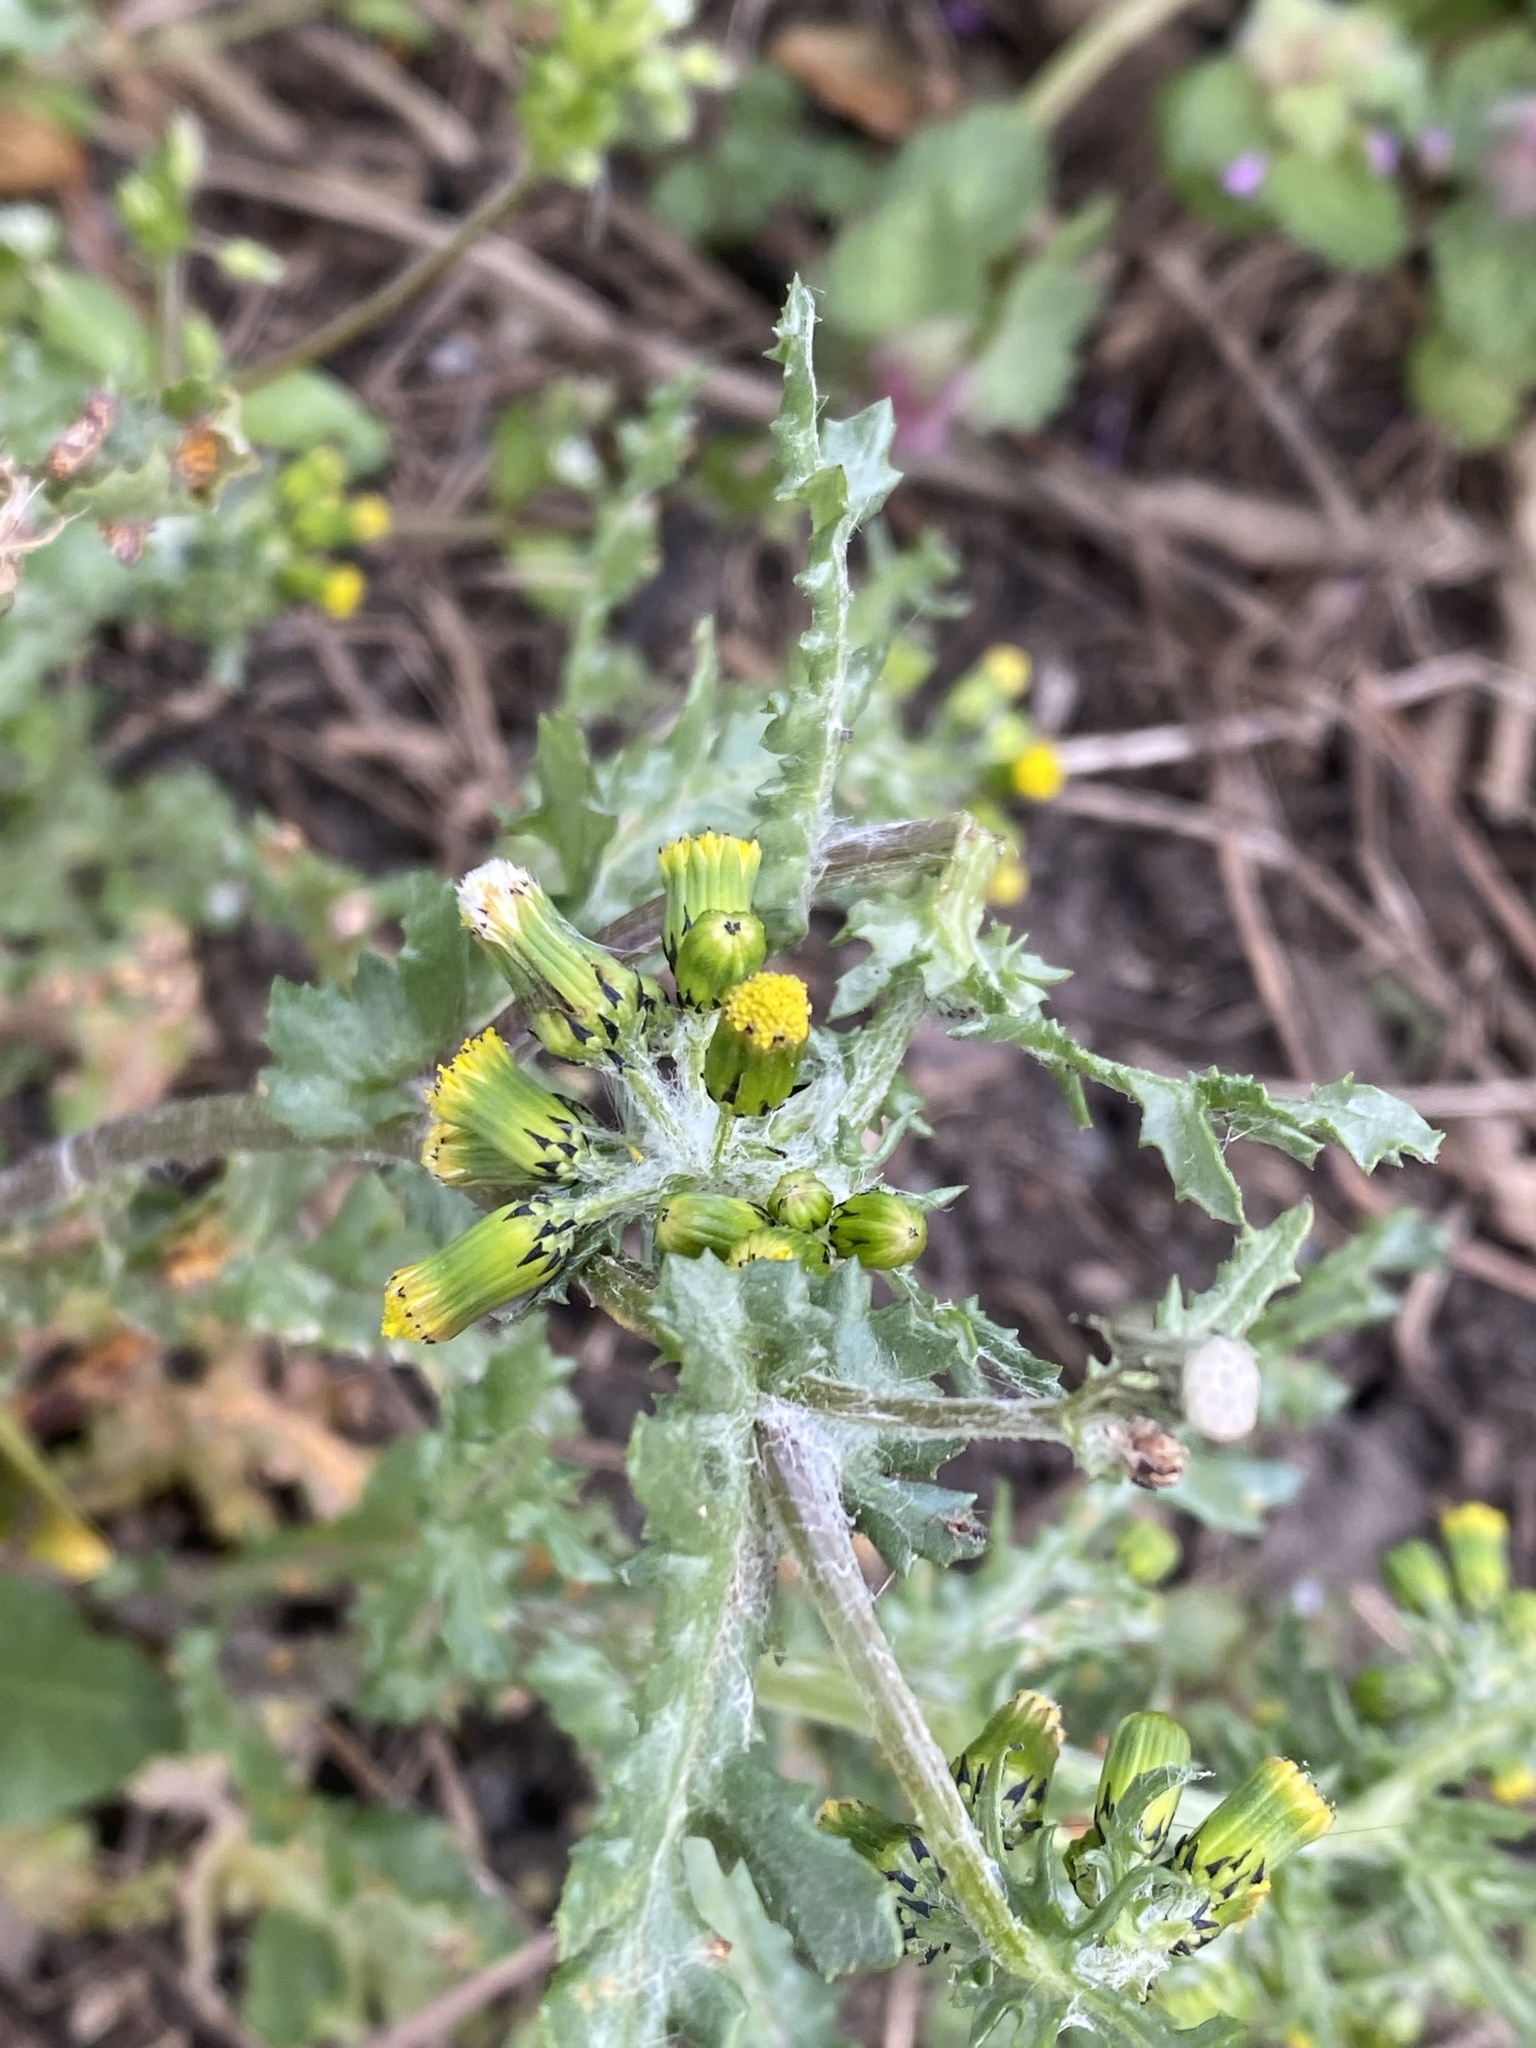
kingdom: Plantae
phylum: Tracheophyta
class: Magnoliopsida
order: Asterales
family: Asteraceae
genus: Senecio
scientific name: Senecio vulgaris
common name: Old-man-in-the-spring
